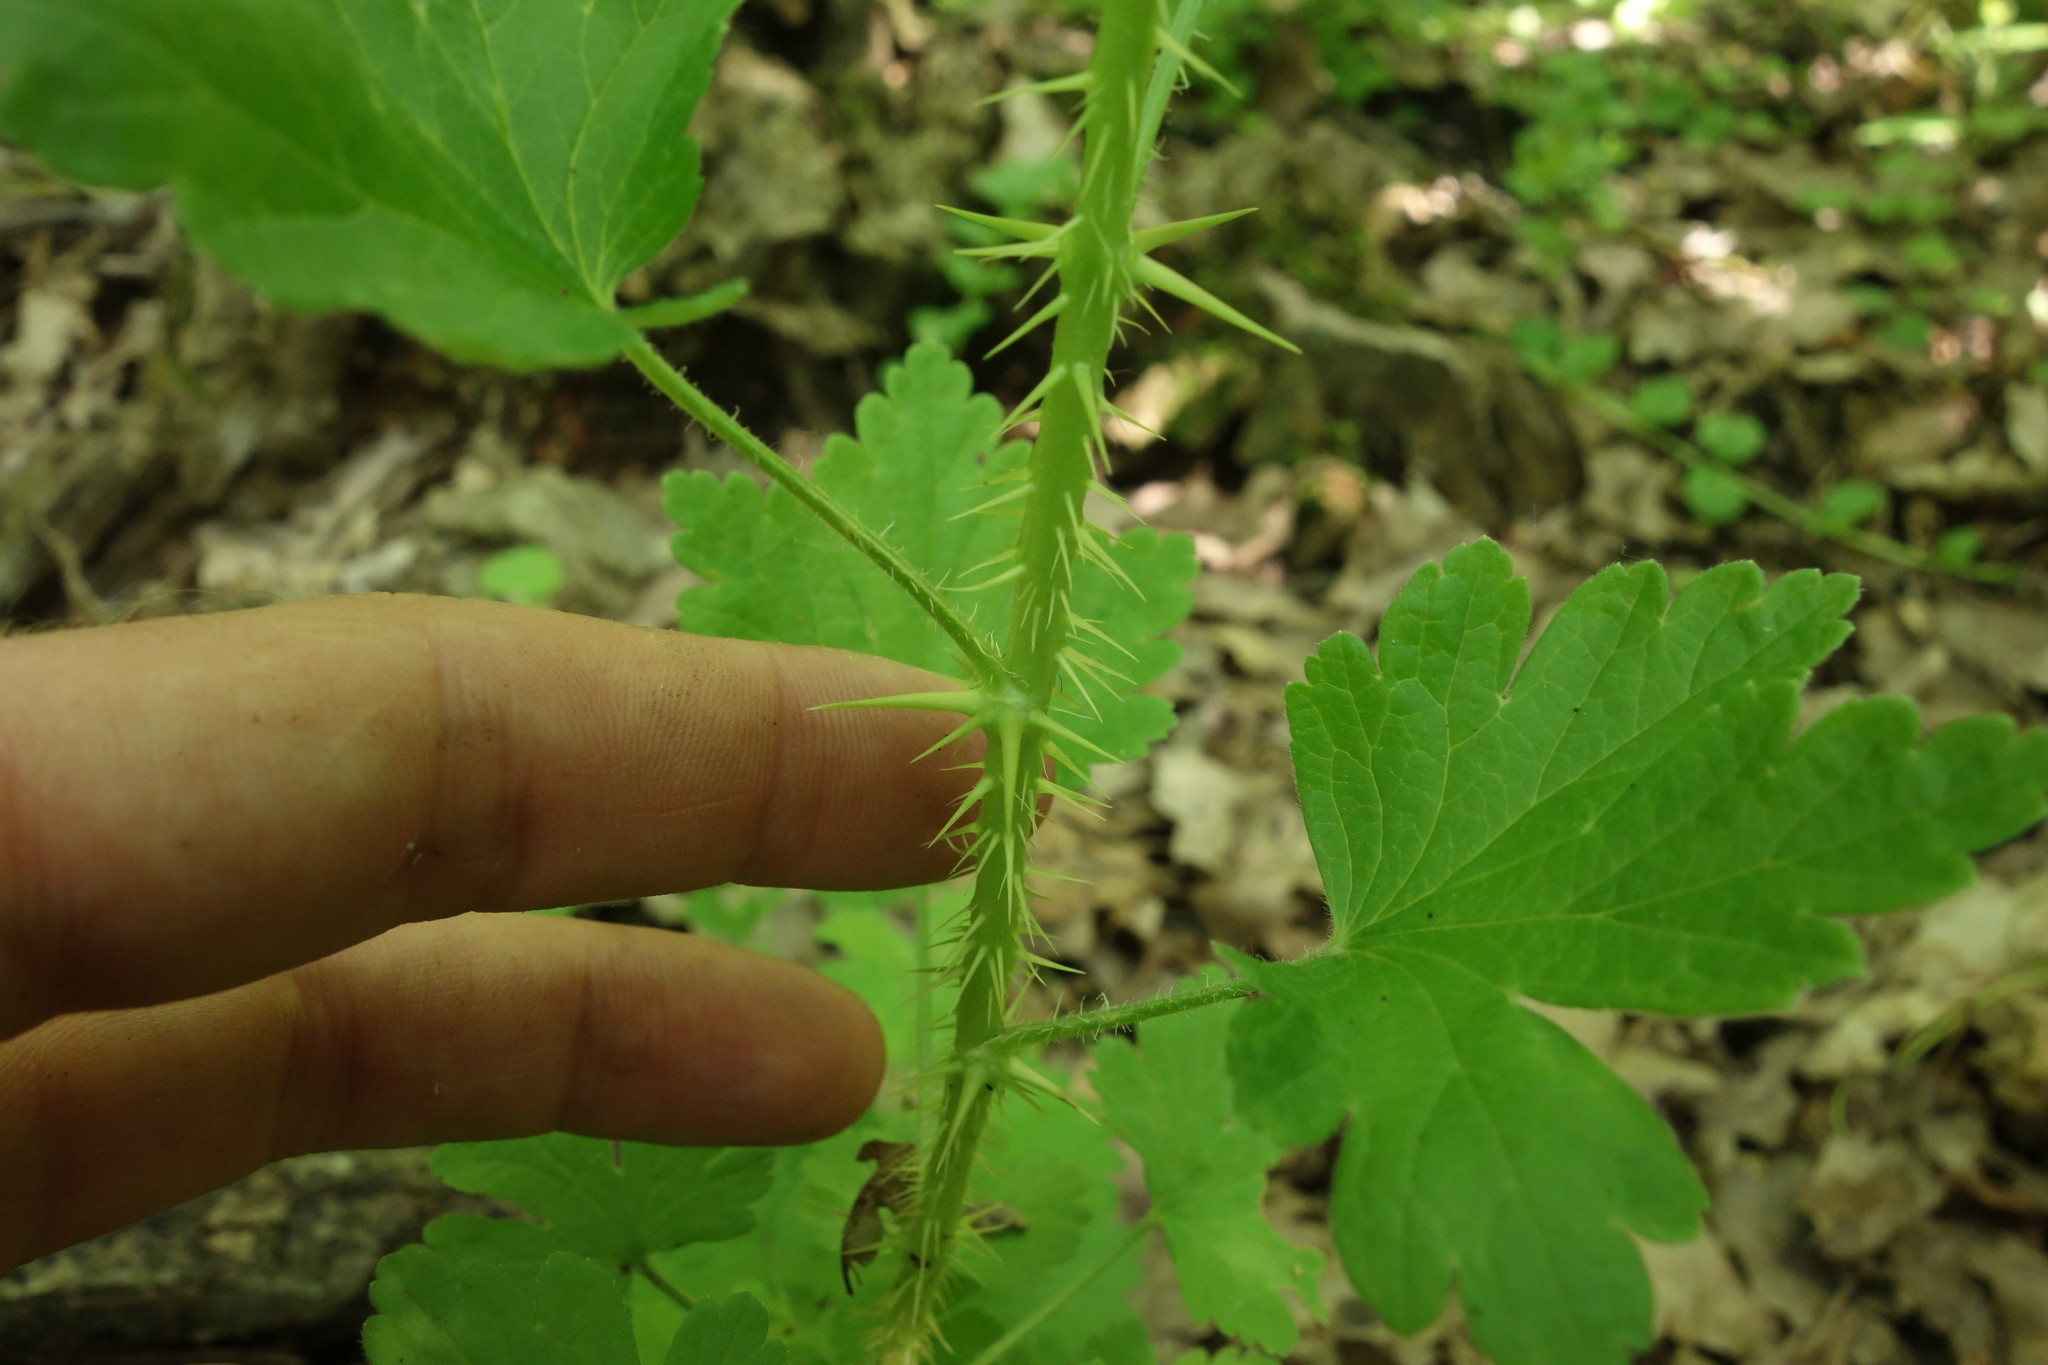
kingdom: Plantae
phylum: Tracheophyta
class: Magnoliopsida
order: Saxifragales
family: Grossulariaceae
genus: Ribes
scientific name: Ribes uva-crispa
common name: Gooseberry
